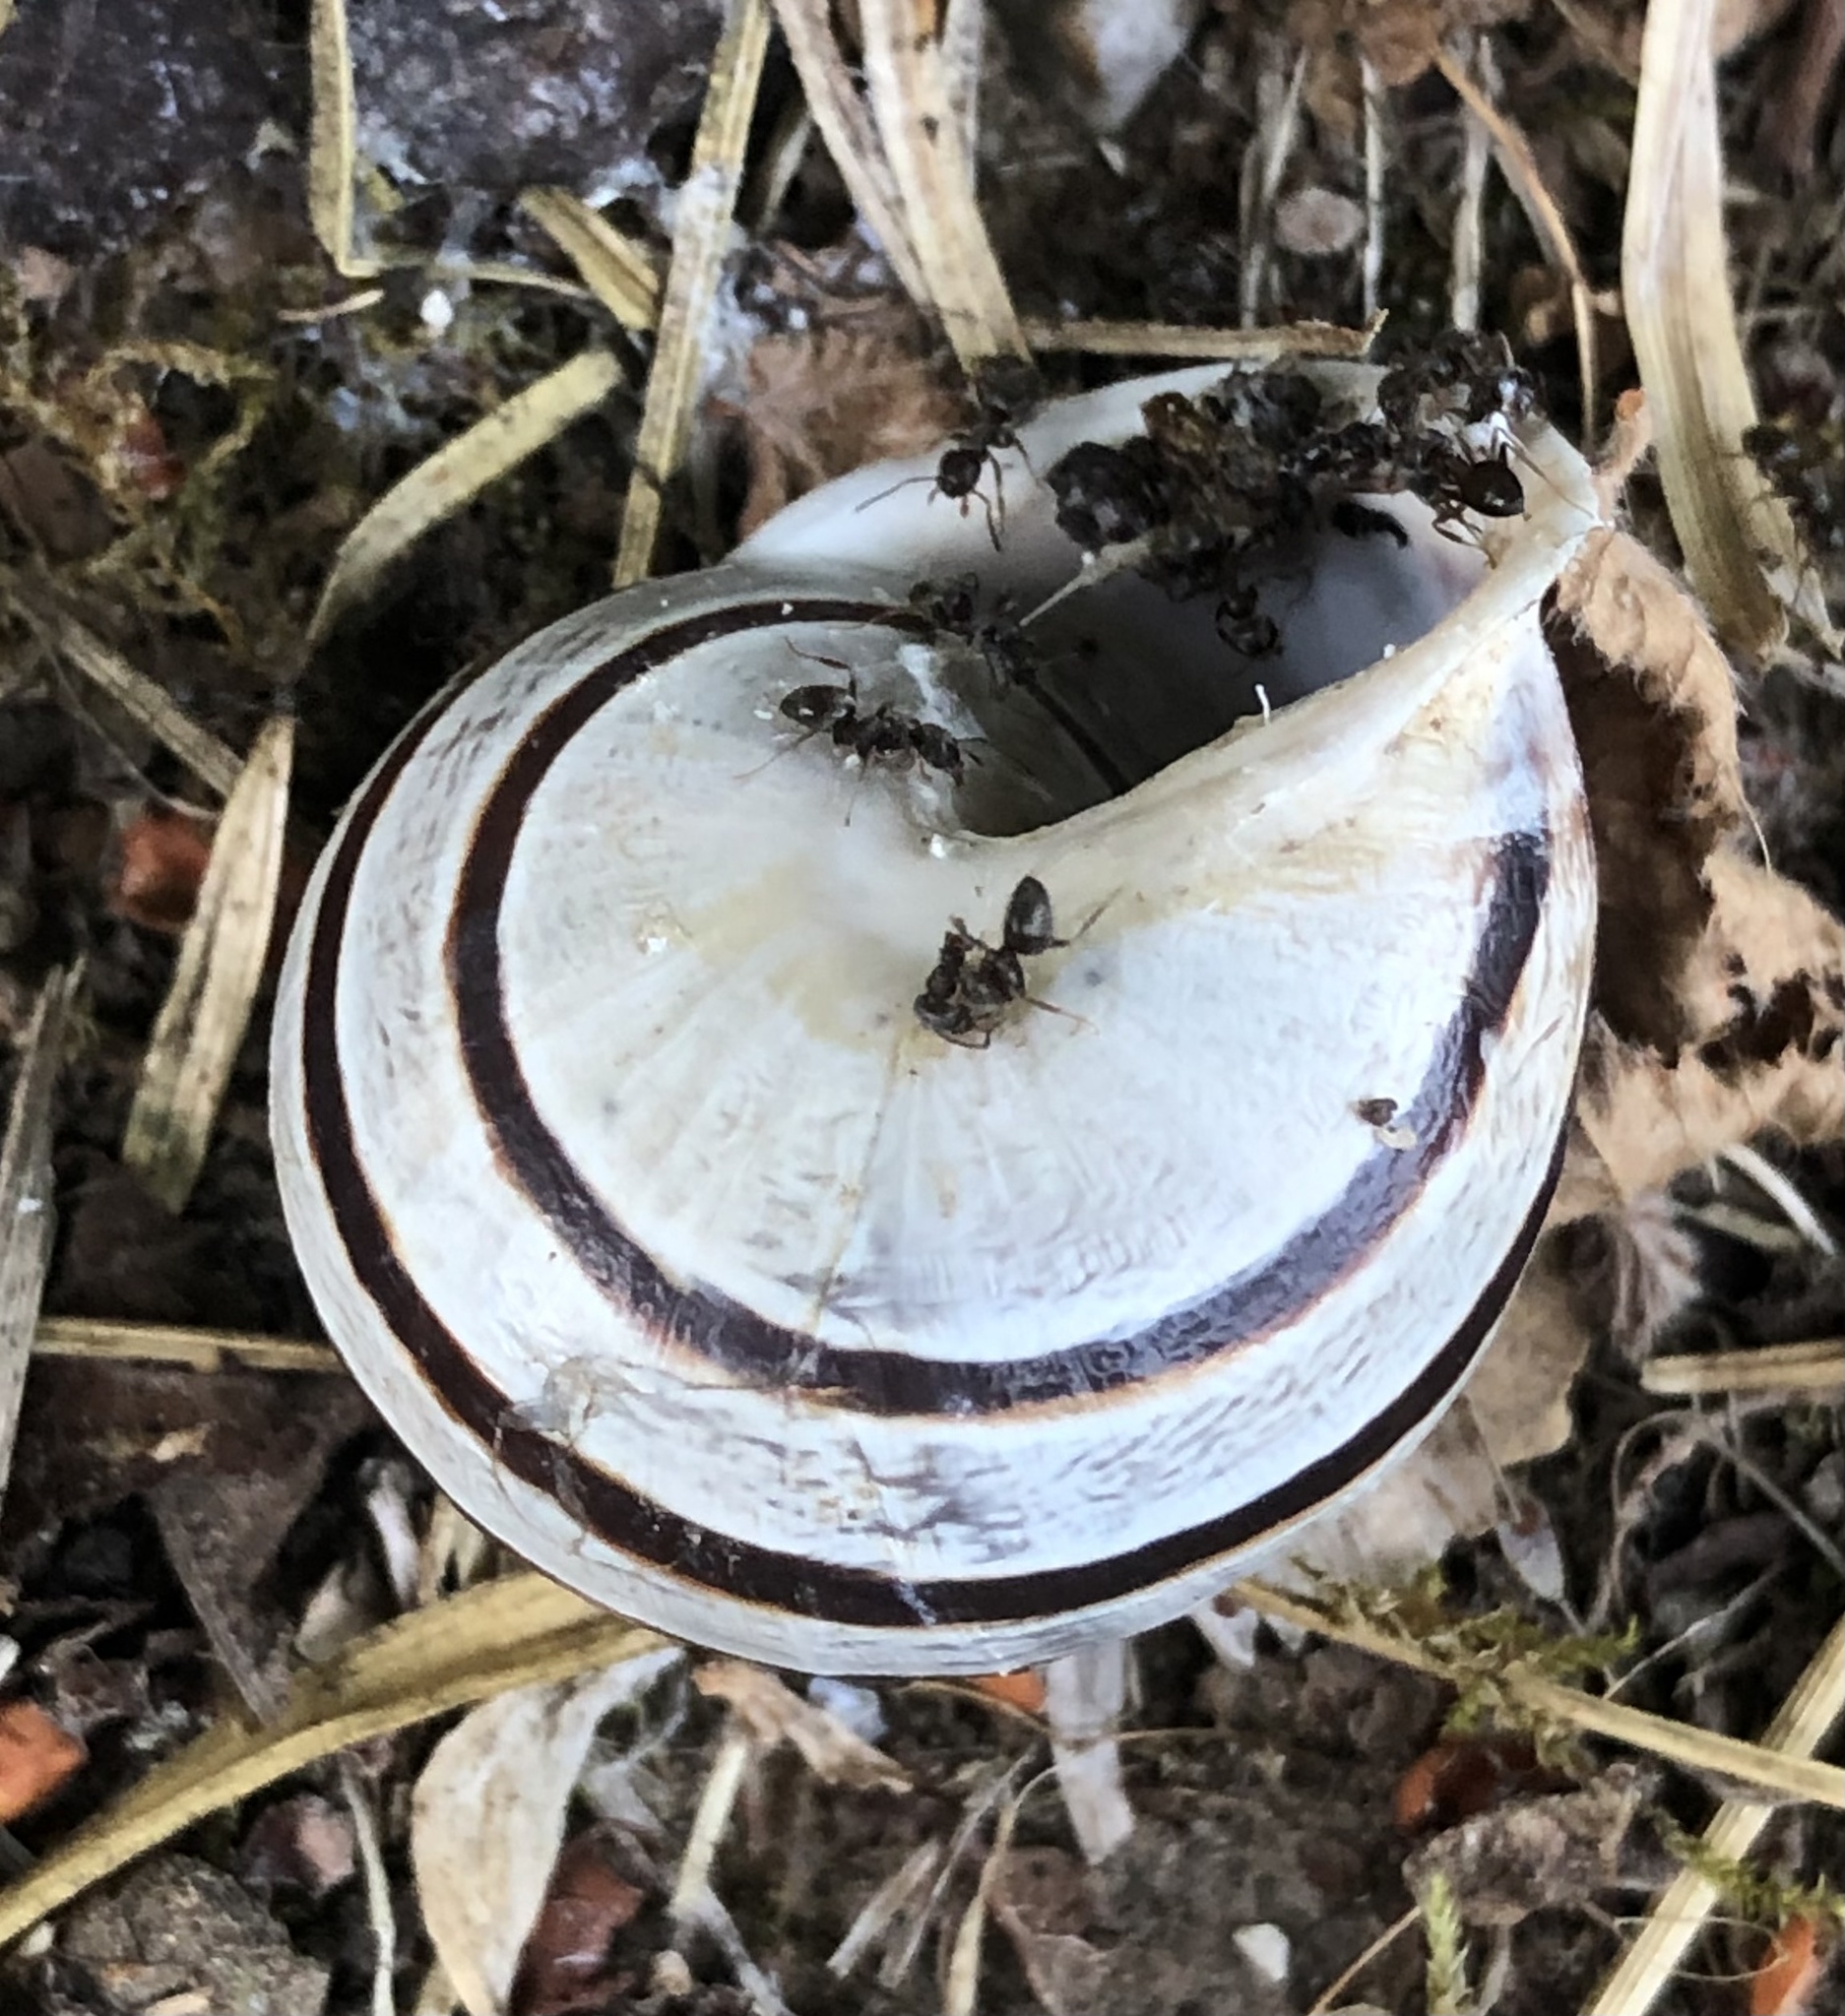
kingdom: Animalia
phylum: Mollusca
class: Gastropoda
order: Stylommatophora
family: Helicidae
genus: Eobania
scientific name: Eobania vermiculata
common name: Chocolateband snail
